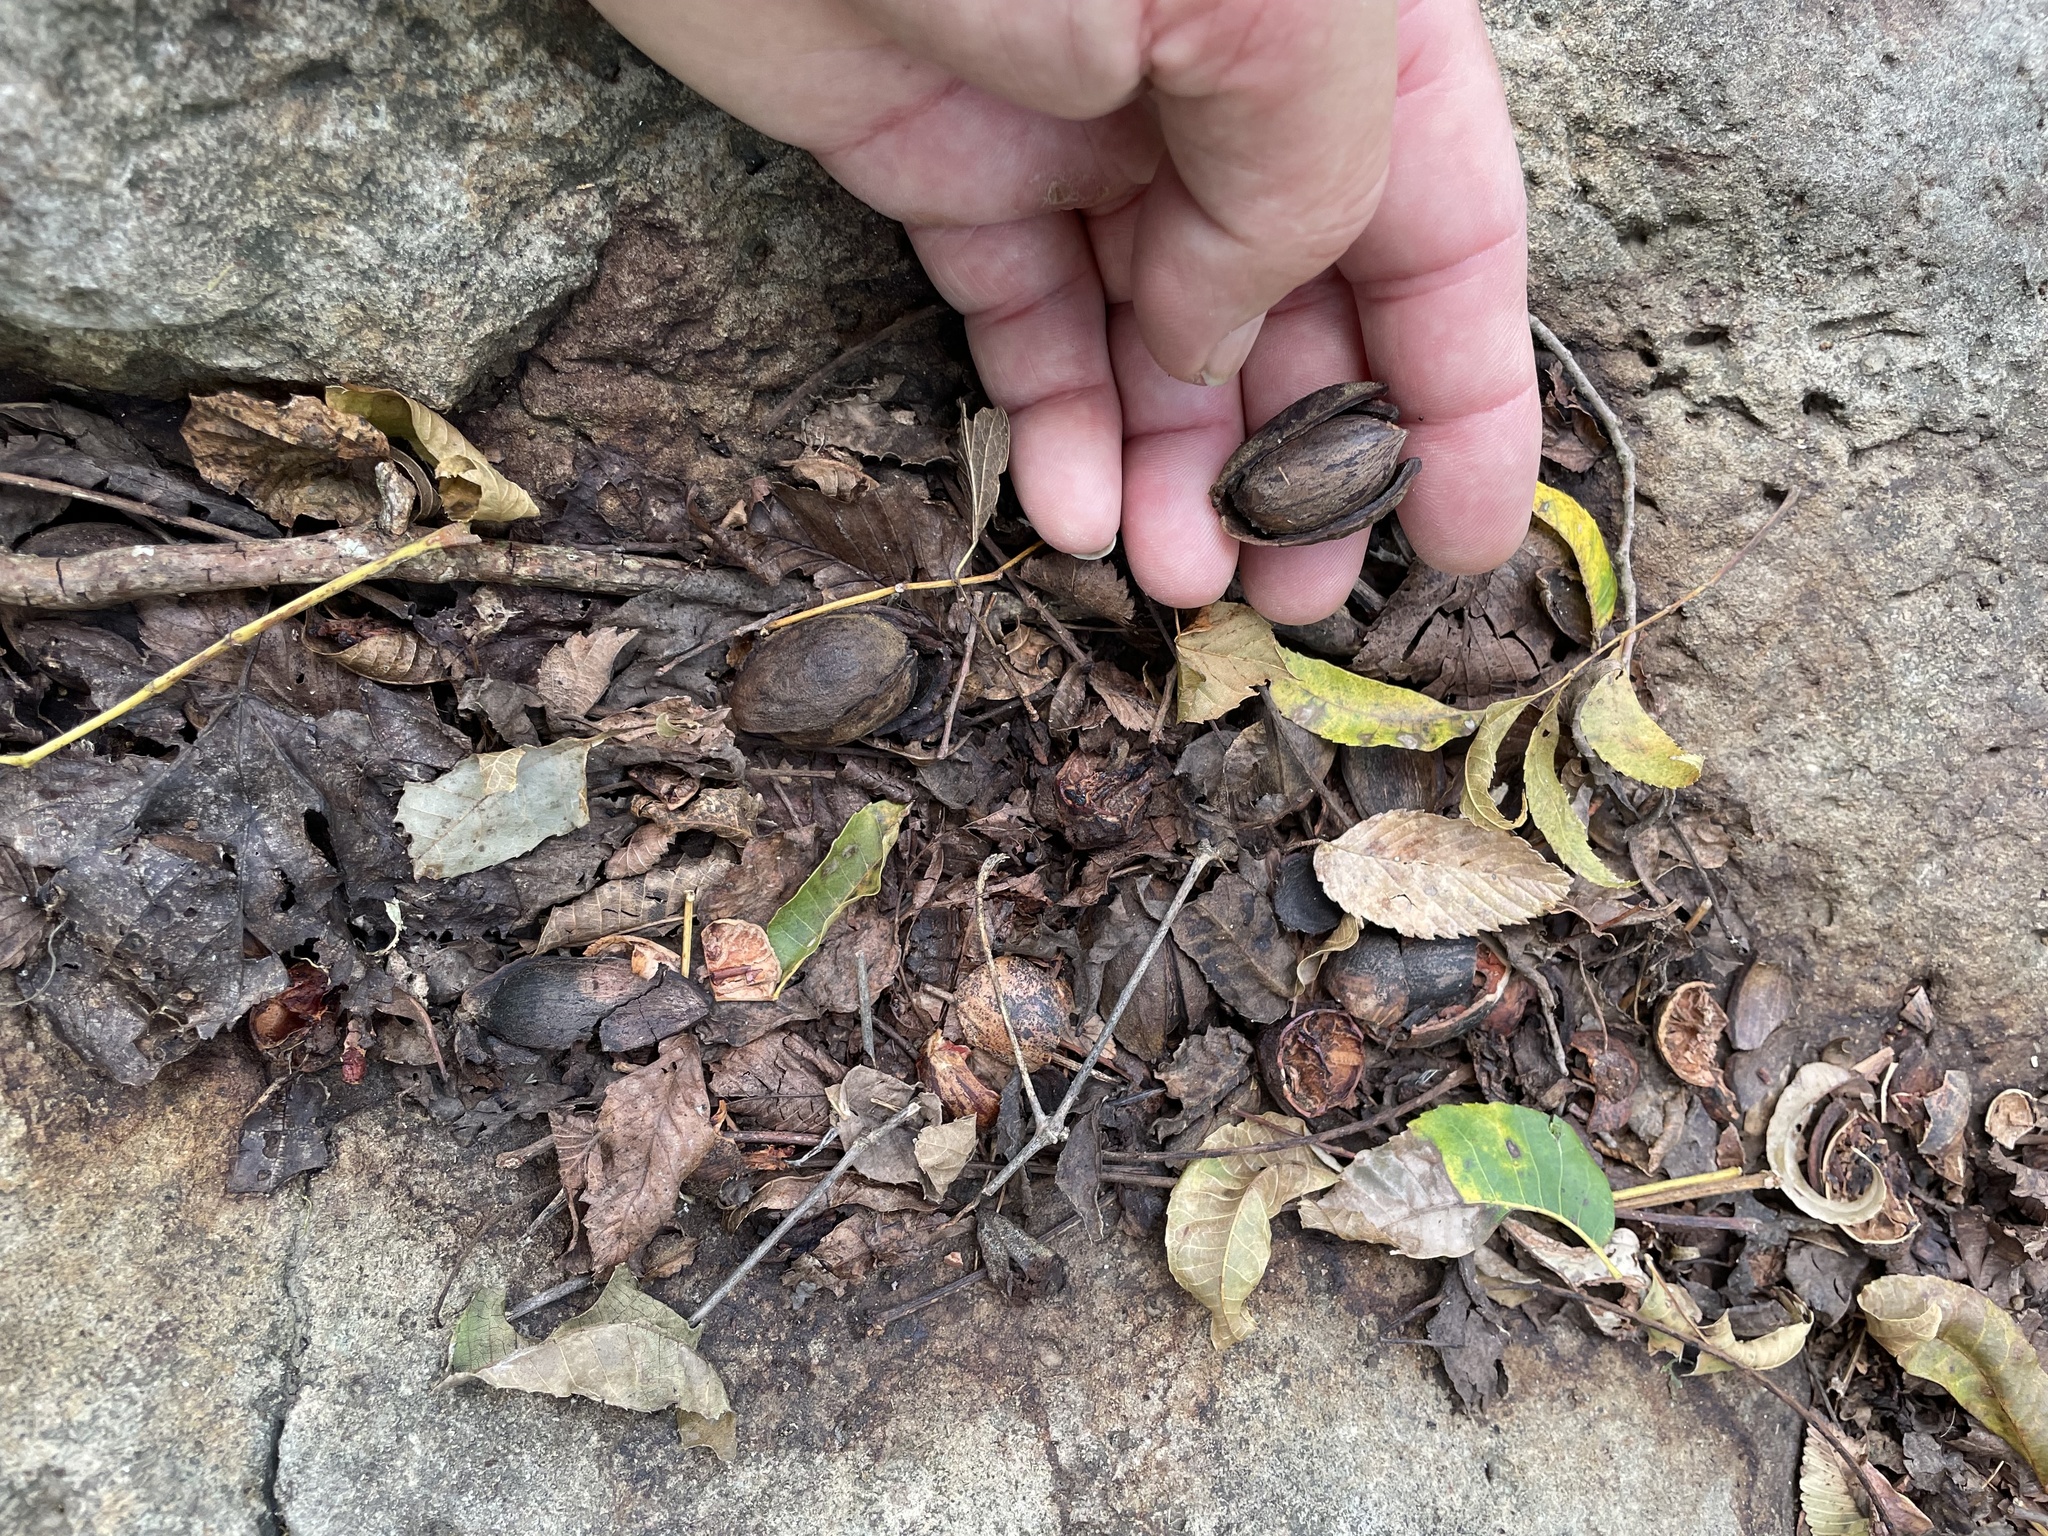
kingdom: Plantae
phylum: Tracheophyta
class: Magnoliopsida
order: Fagales
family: Juglandaceae
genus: Carya
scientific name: Carya illinoinensis
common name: Pecan
